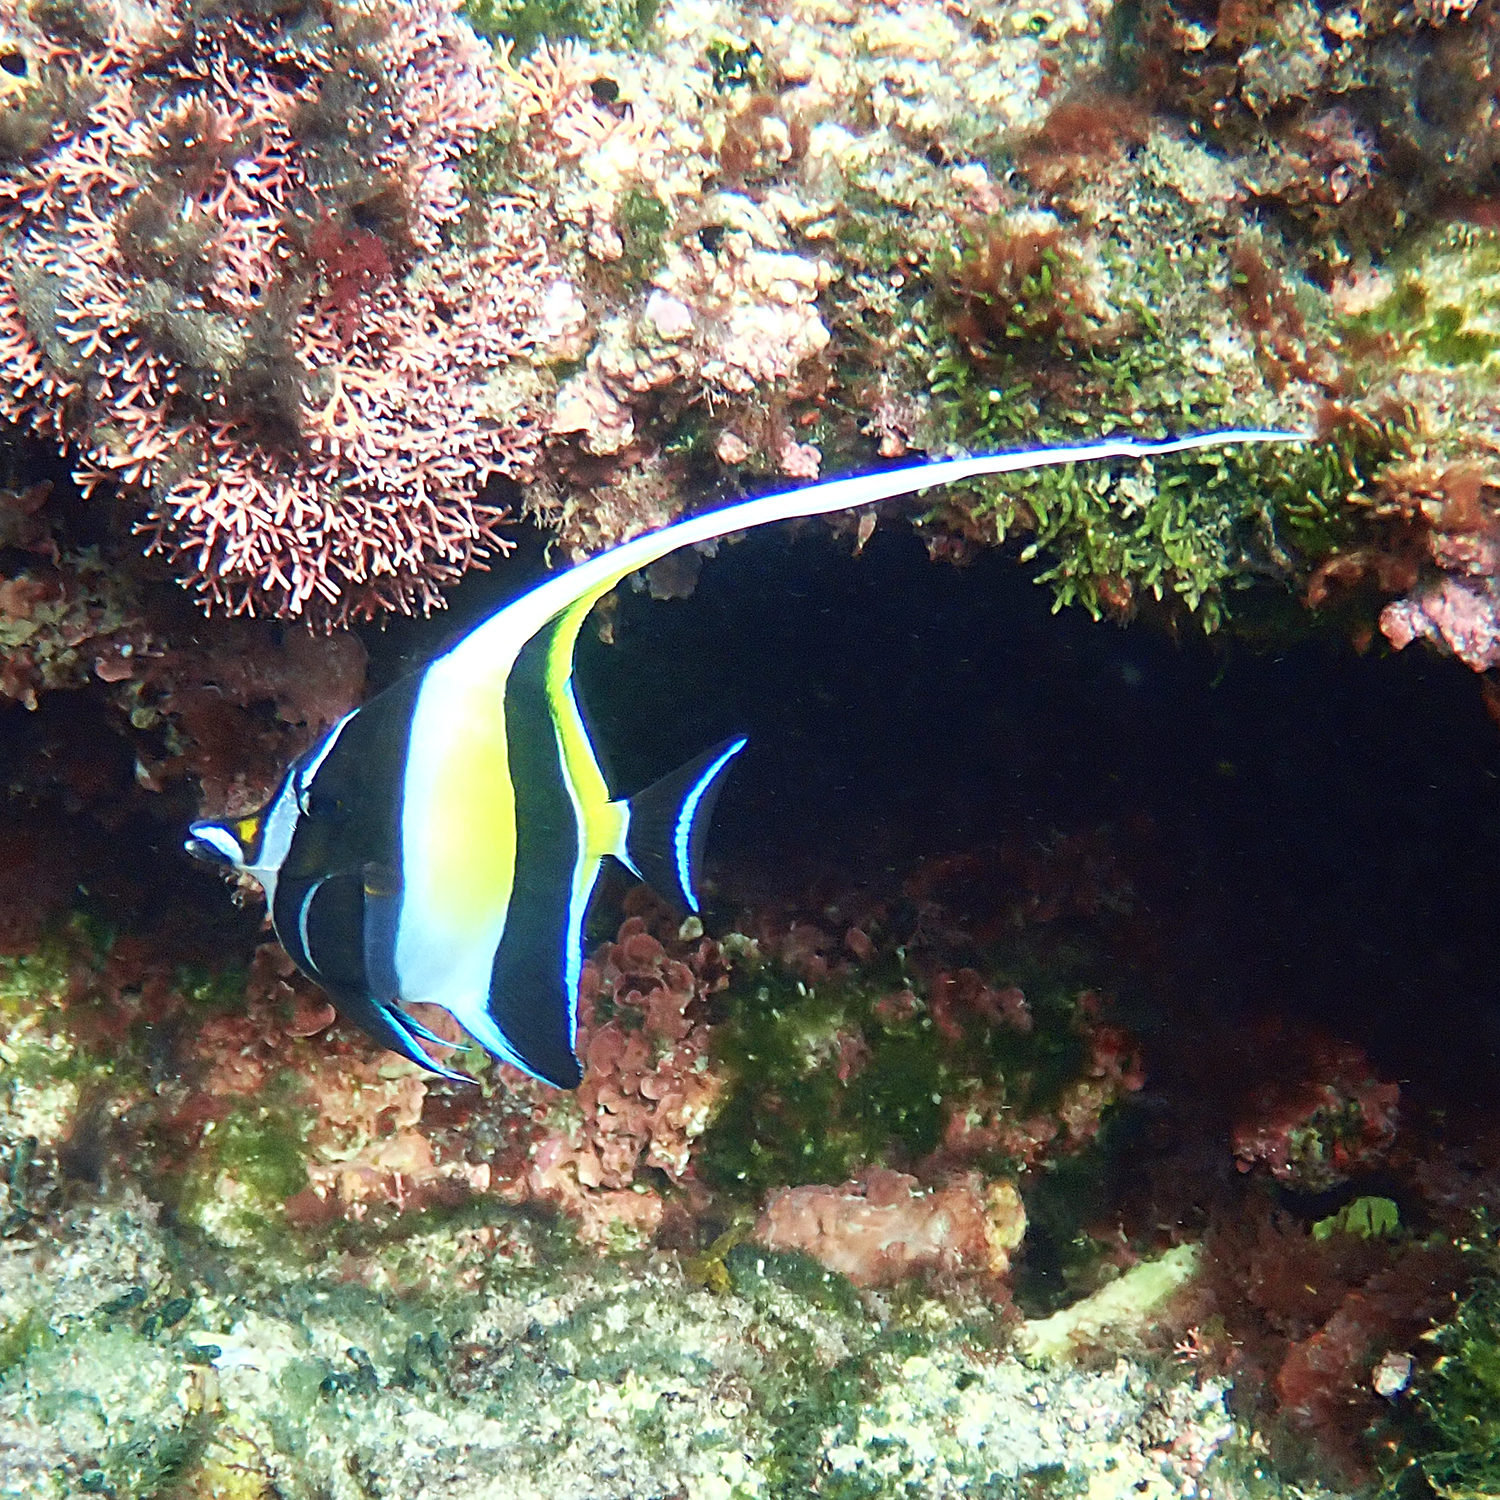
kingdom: Animalia
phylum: Chordata
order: Perciformes
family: Zanclidae
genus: Zanclus
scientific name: Zanclus cornutus
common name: Moorish idol
